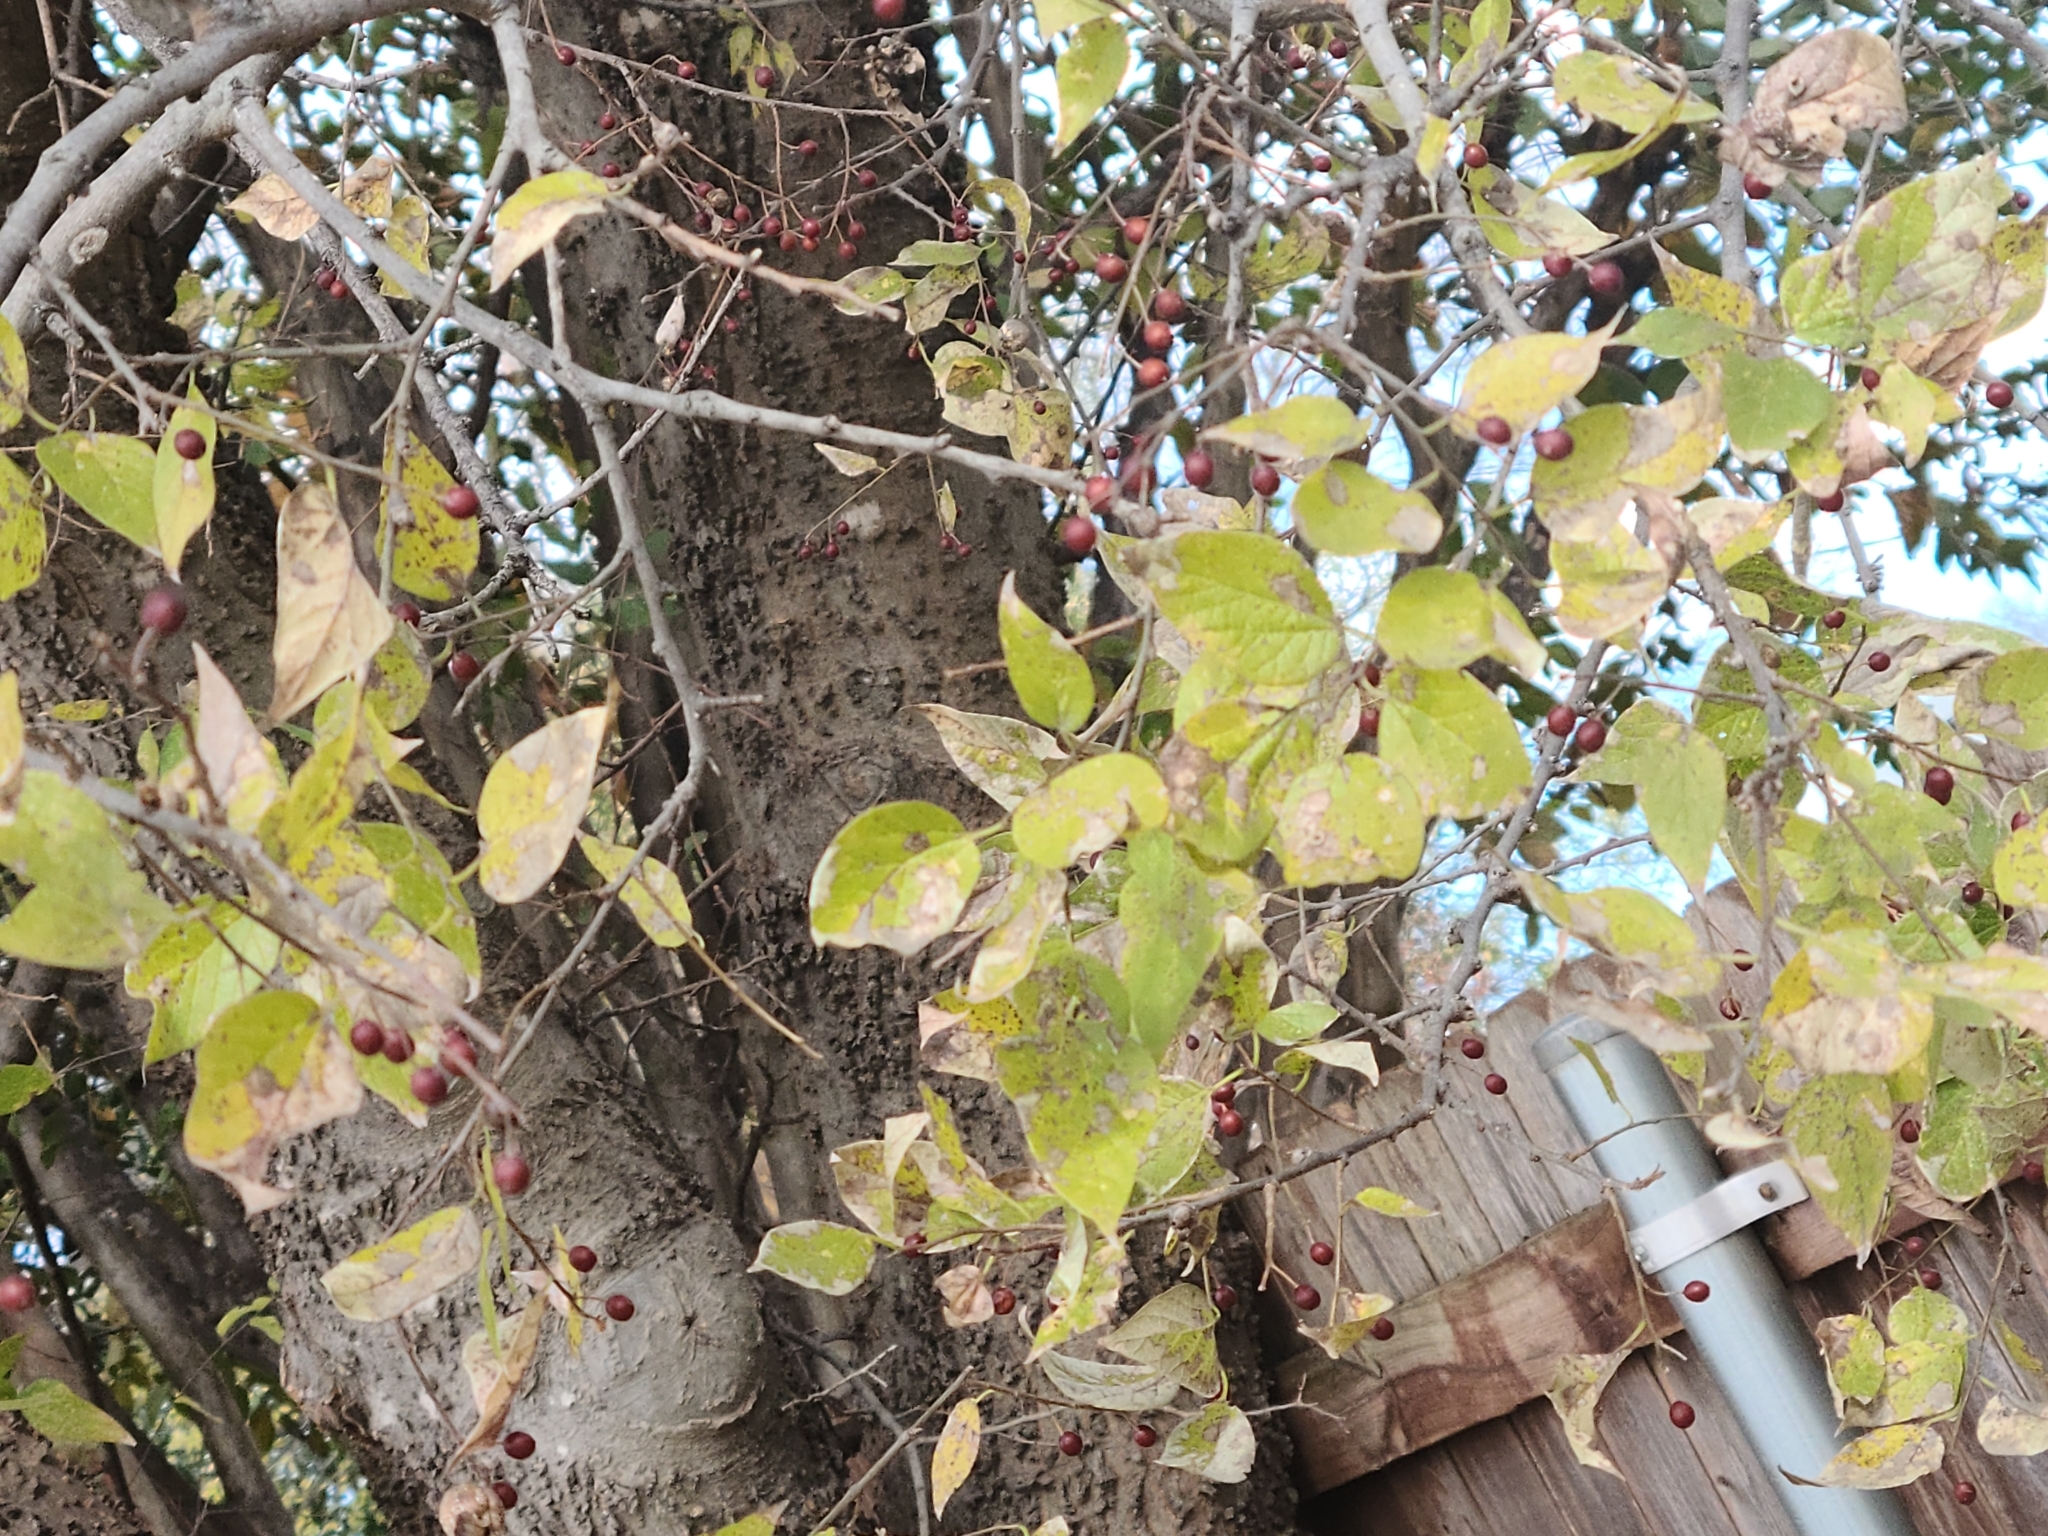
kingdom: Plantae
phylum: Tracheophyta
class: Magnoliopsida
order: Rosales
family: Cannabaceae
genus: Celtis
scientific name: Celtis laevigata
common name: Sugarberry
